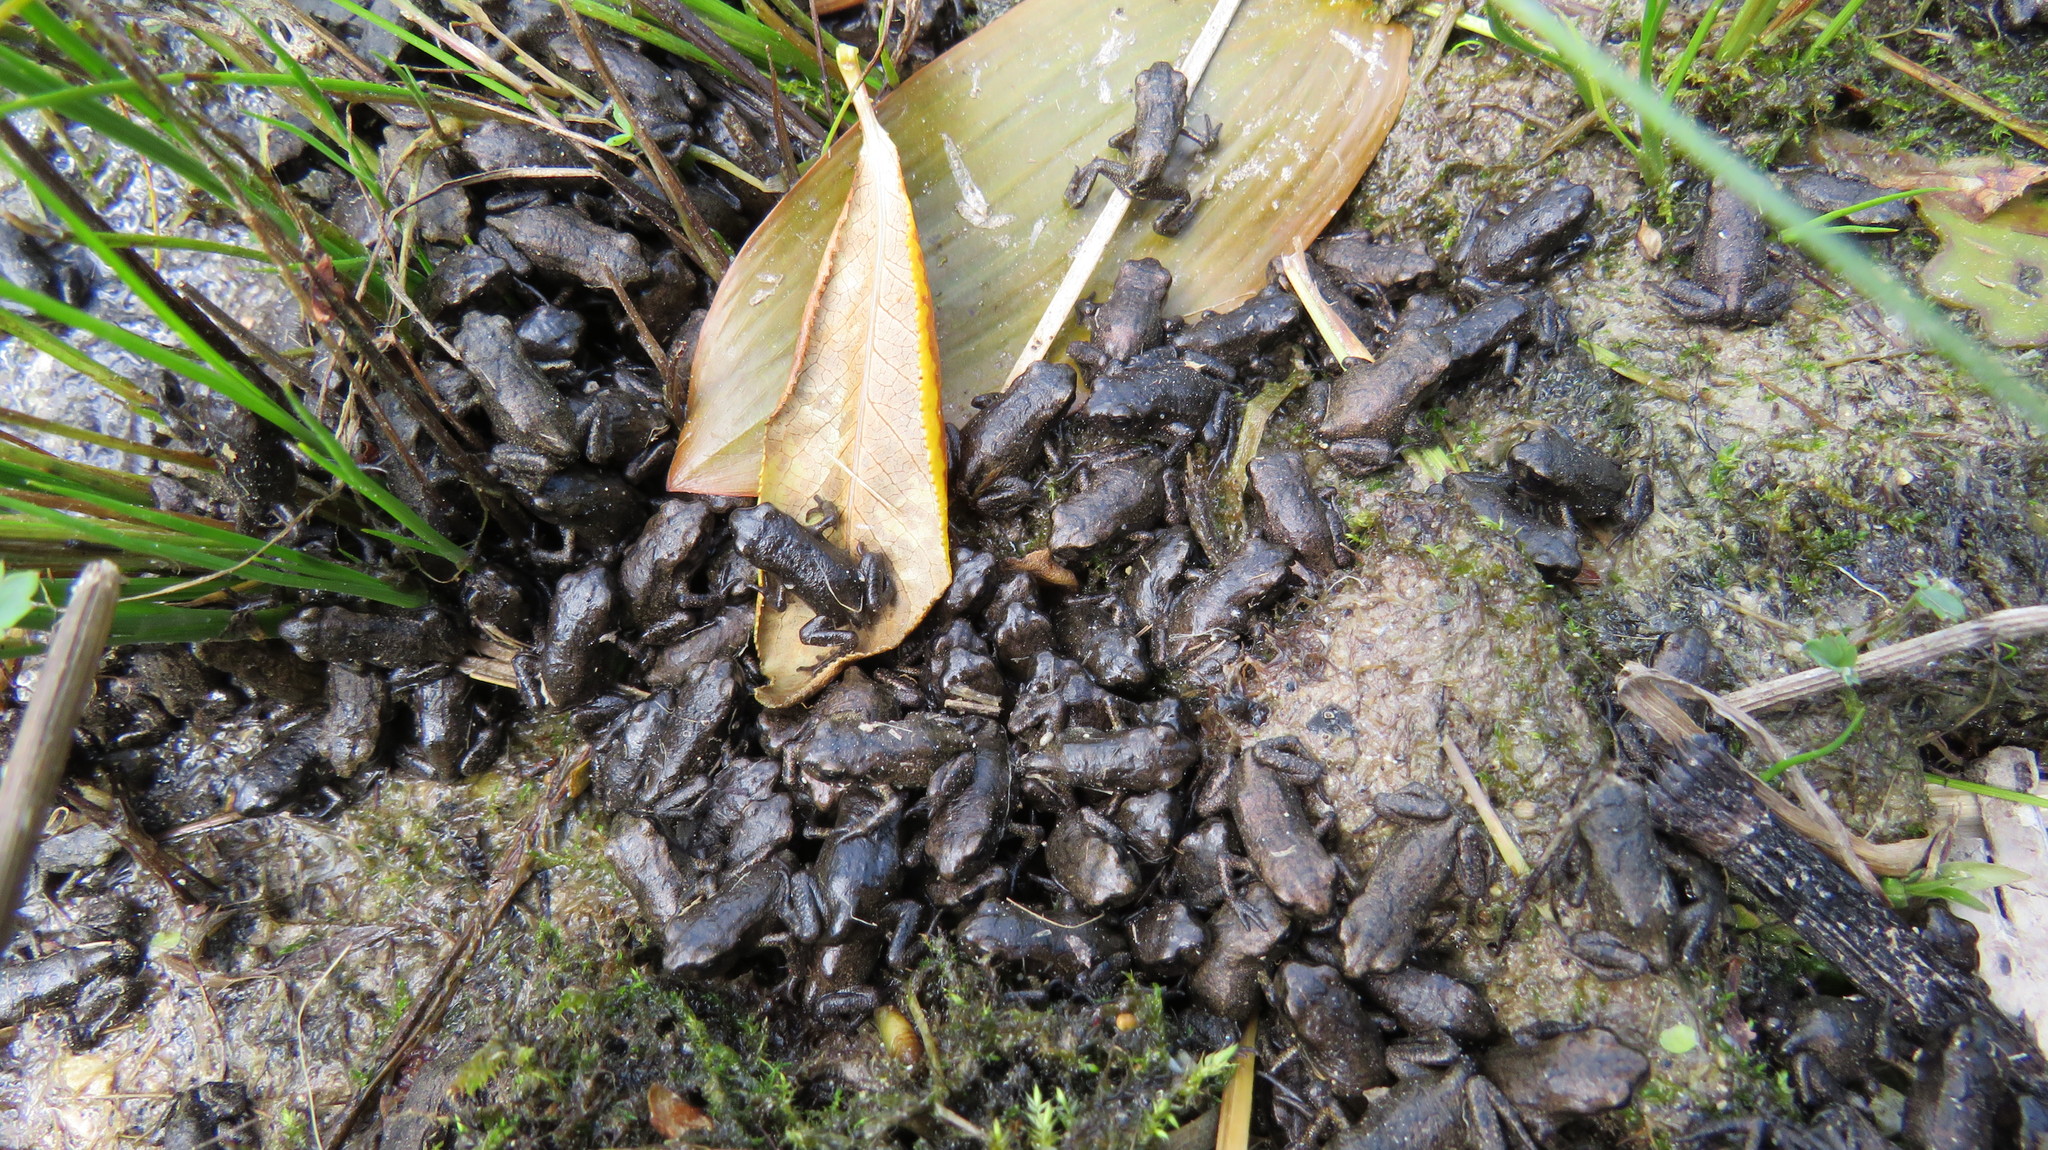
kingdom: Animalia
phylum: Chordata
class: Amphibia
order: Anura
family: Bufonidae
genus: Bufo
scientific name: Bufo bufo
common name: Common toad
